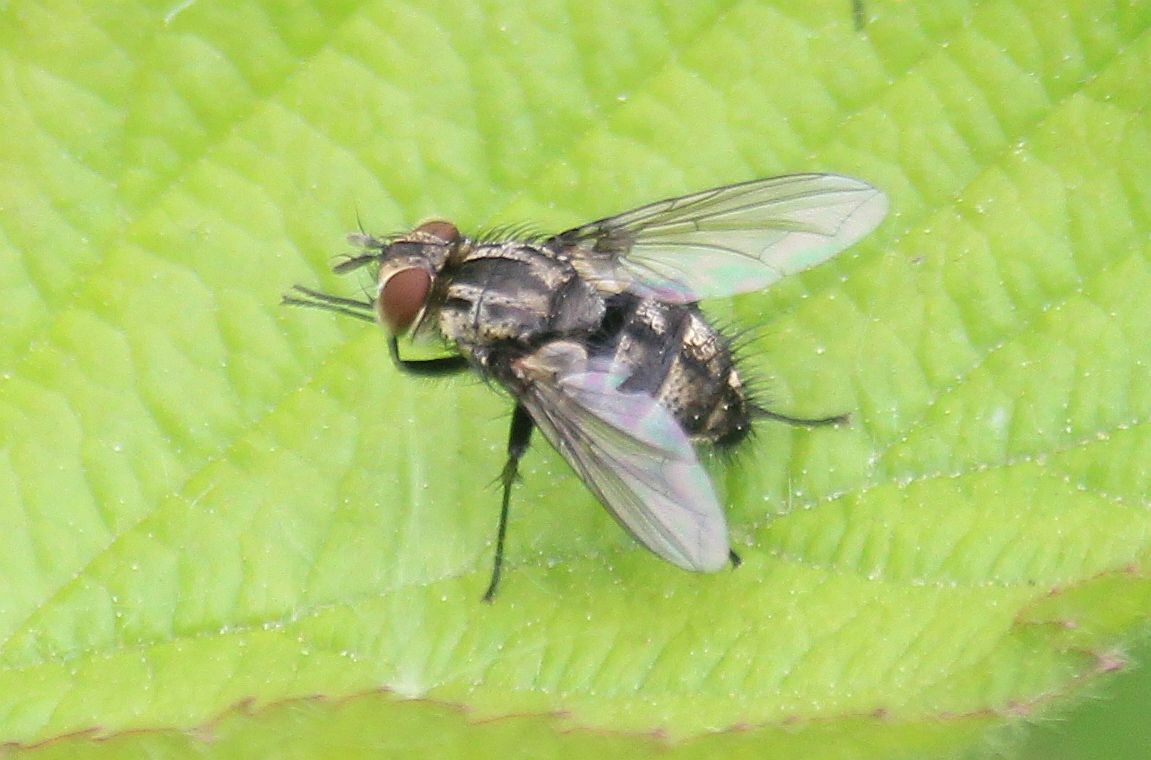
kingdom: Animalia
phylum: Arthropoda
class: Insecta
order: Diptera
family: Tachinidae
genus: Nemorilla
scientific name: Nemorilla floralis
